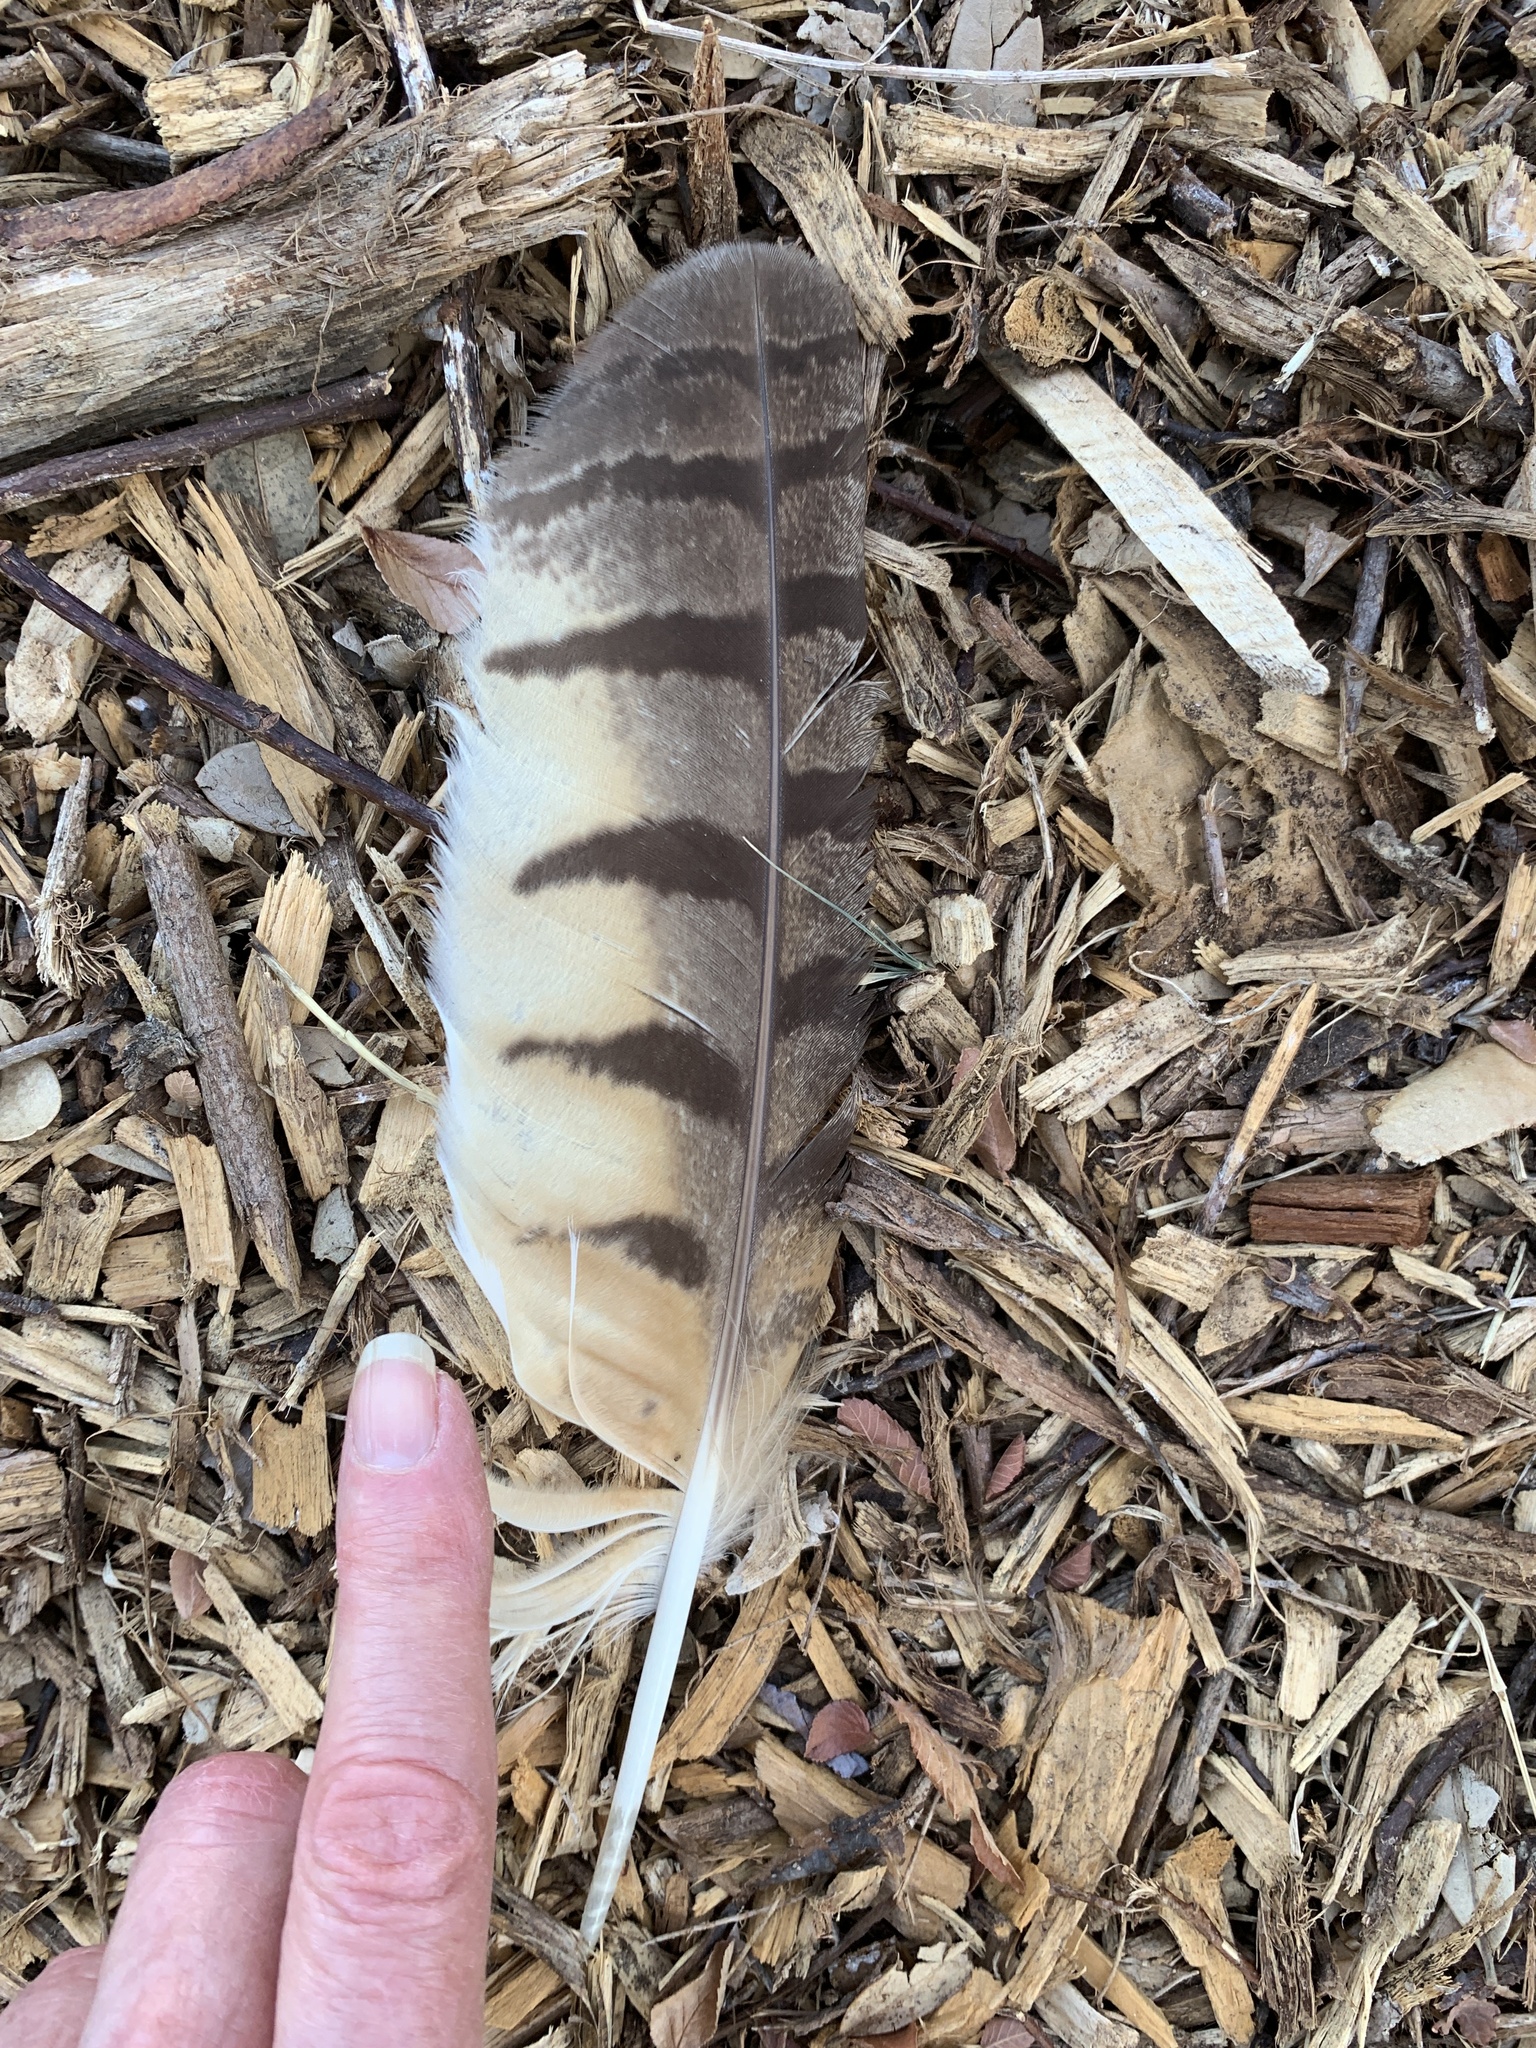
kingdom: Animalia
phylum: Chordata
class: Aves
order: Strigiformes
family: Strigidae
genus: Bubo
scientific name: Bubo virginianus
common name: Great horned owl
